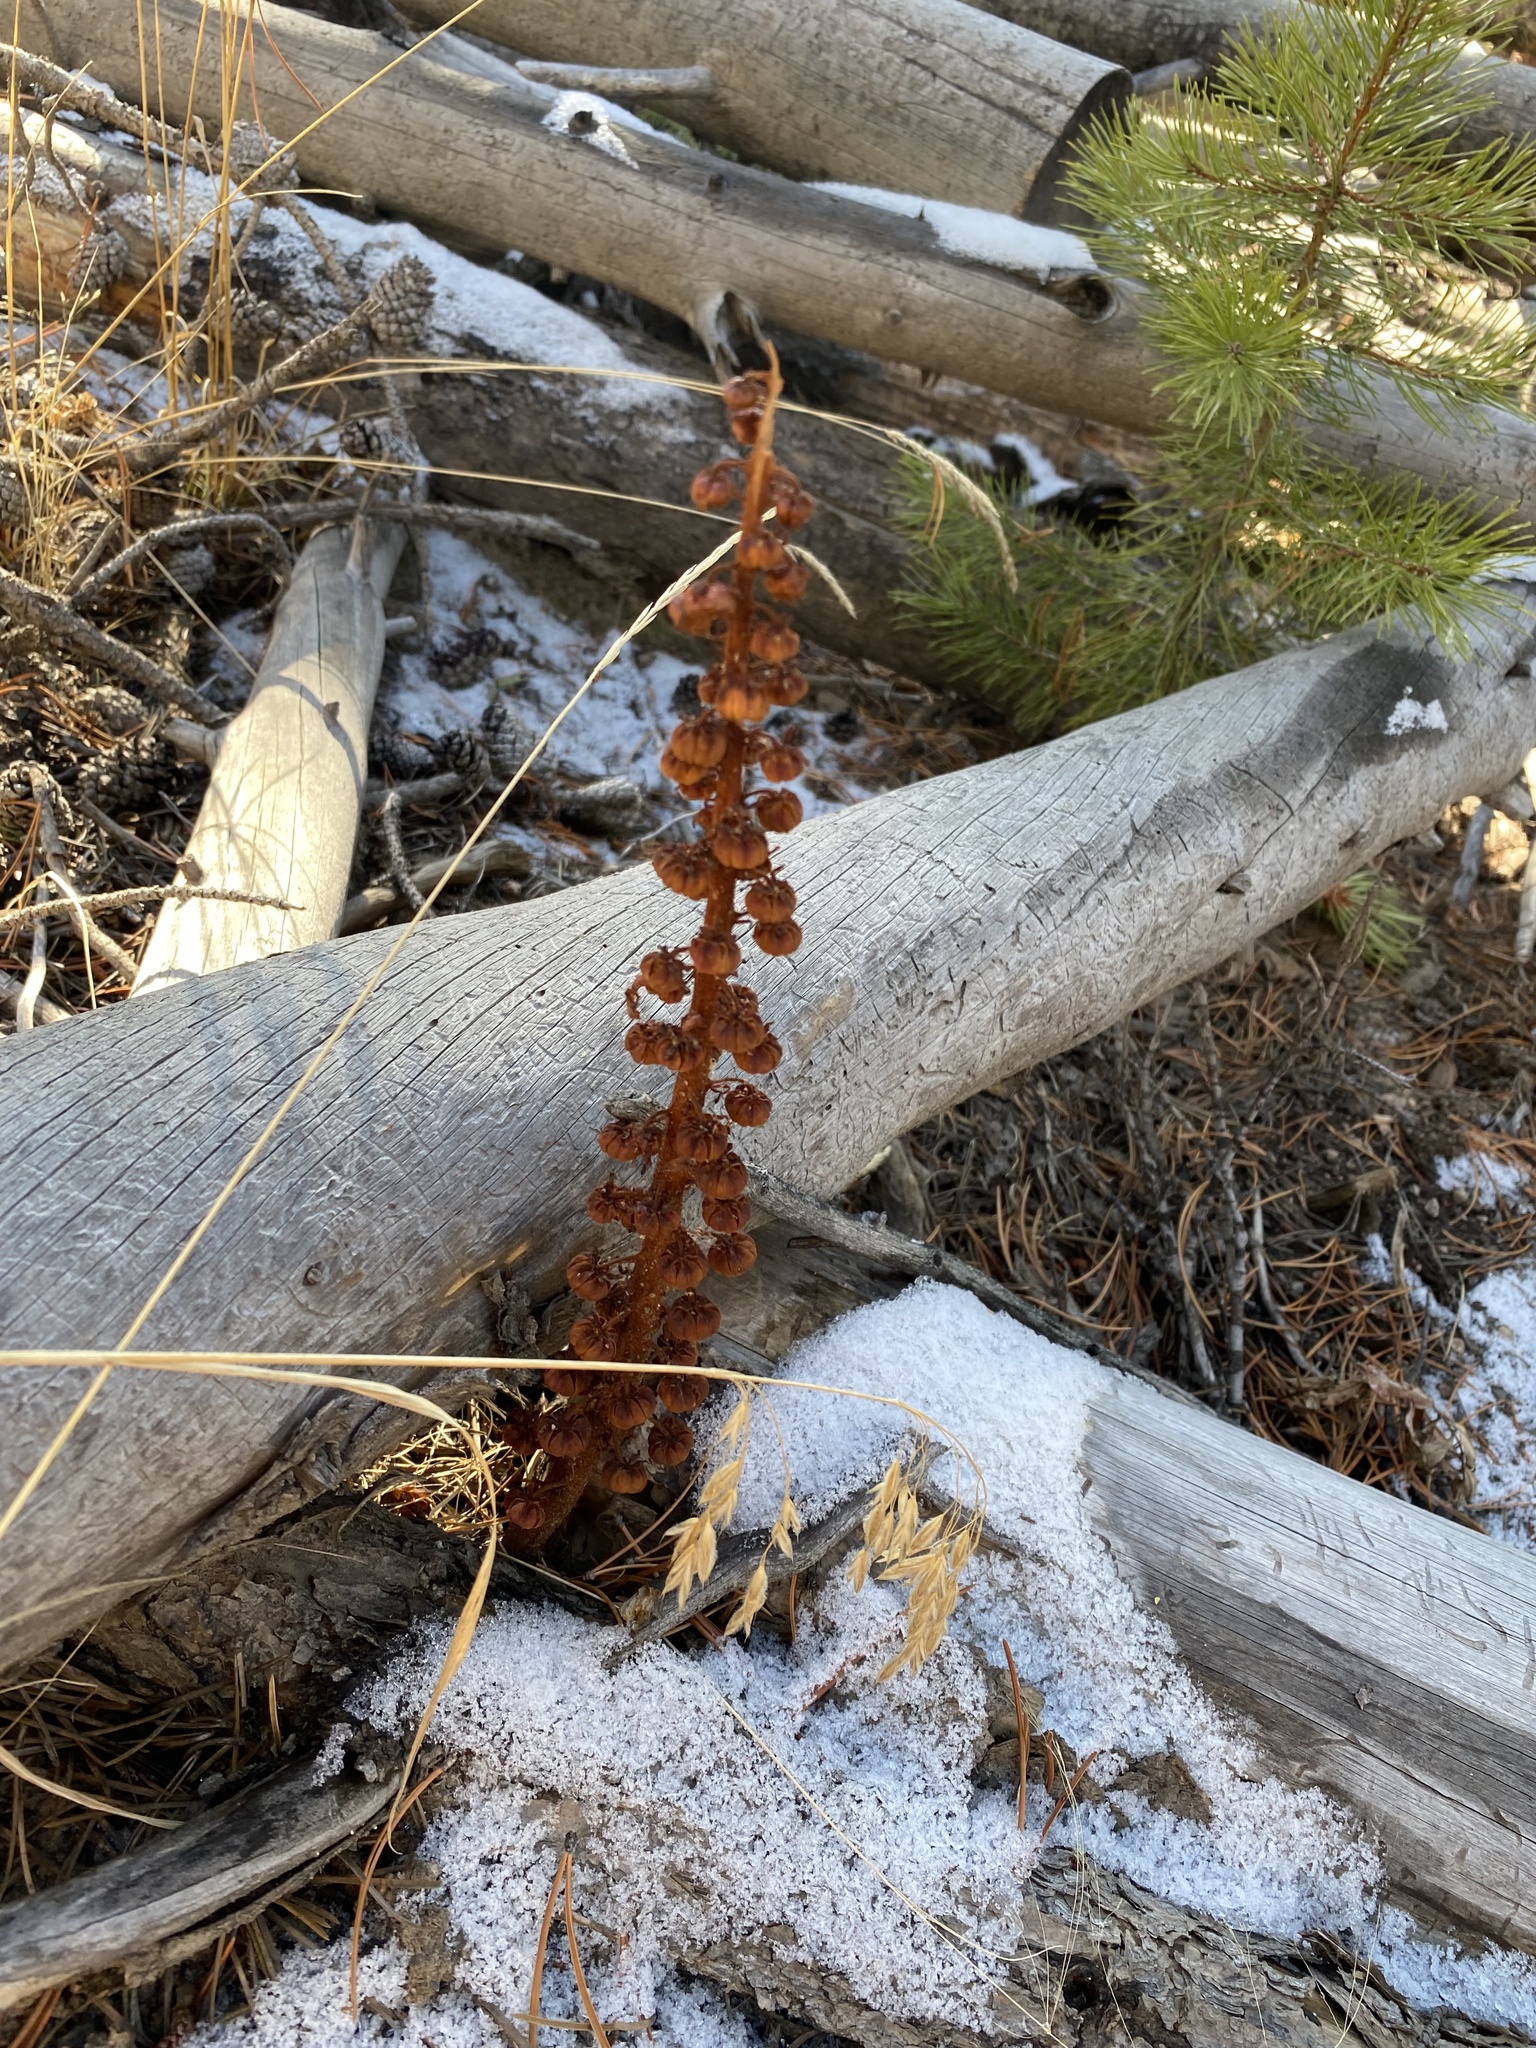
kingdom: Plantae
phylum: Tracheophyta
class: Magnoliopsida
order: Ericales
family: Ericaceae
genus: Pterospora
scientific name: Pterospora andromedea
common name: Giant bird's-nest
